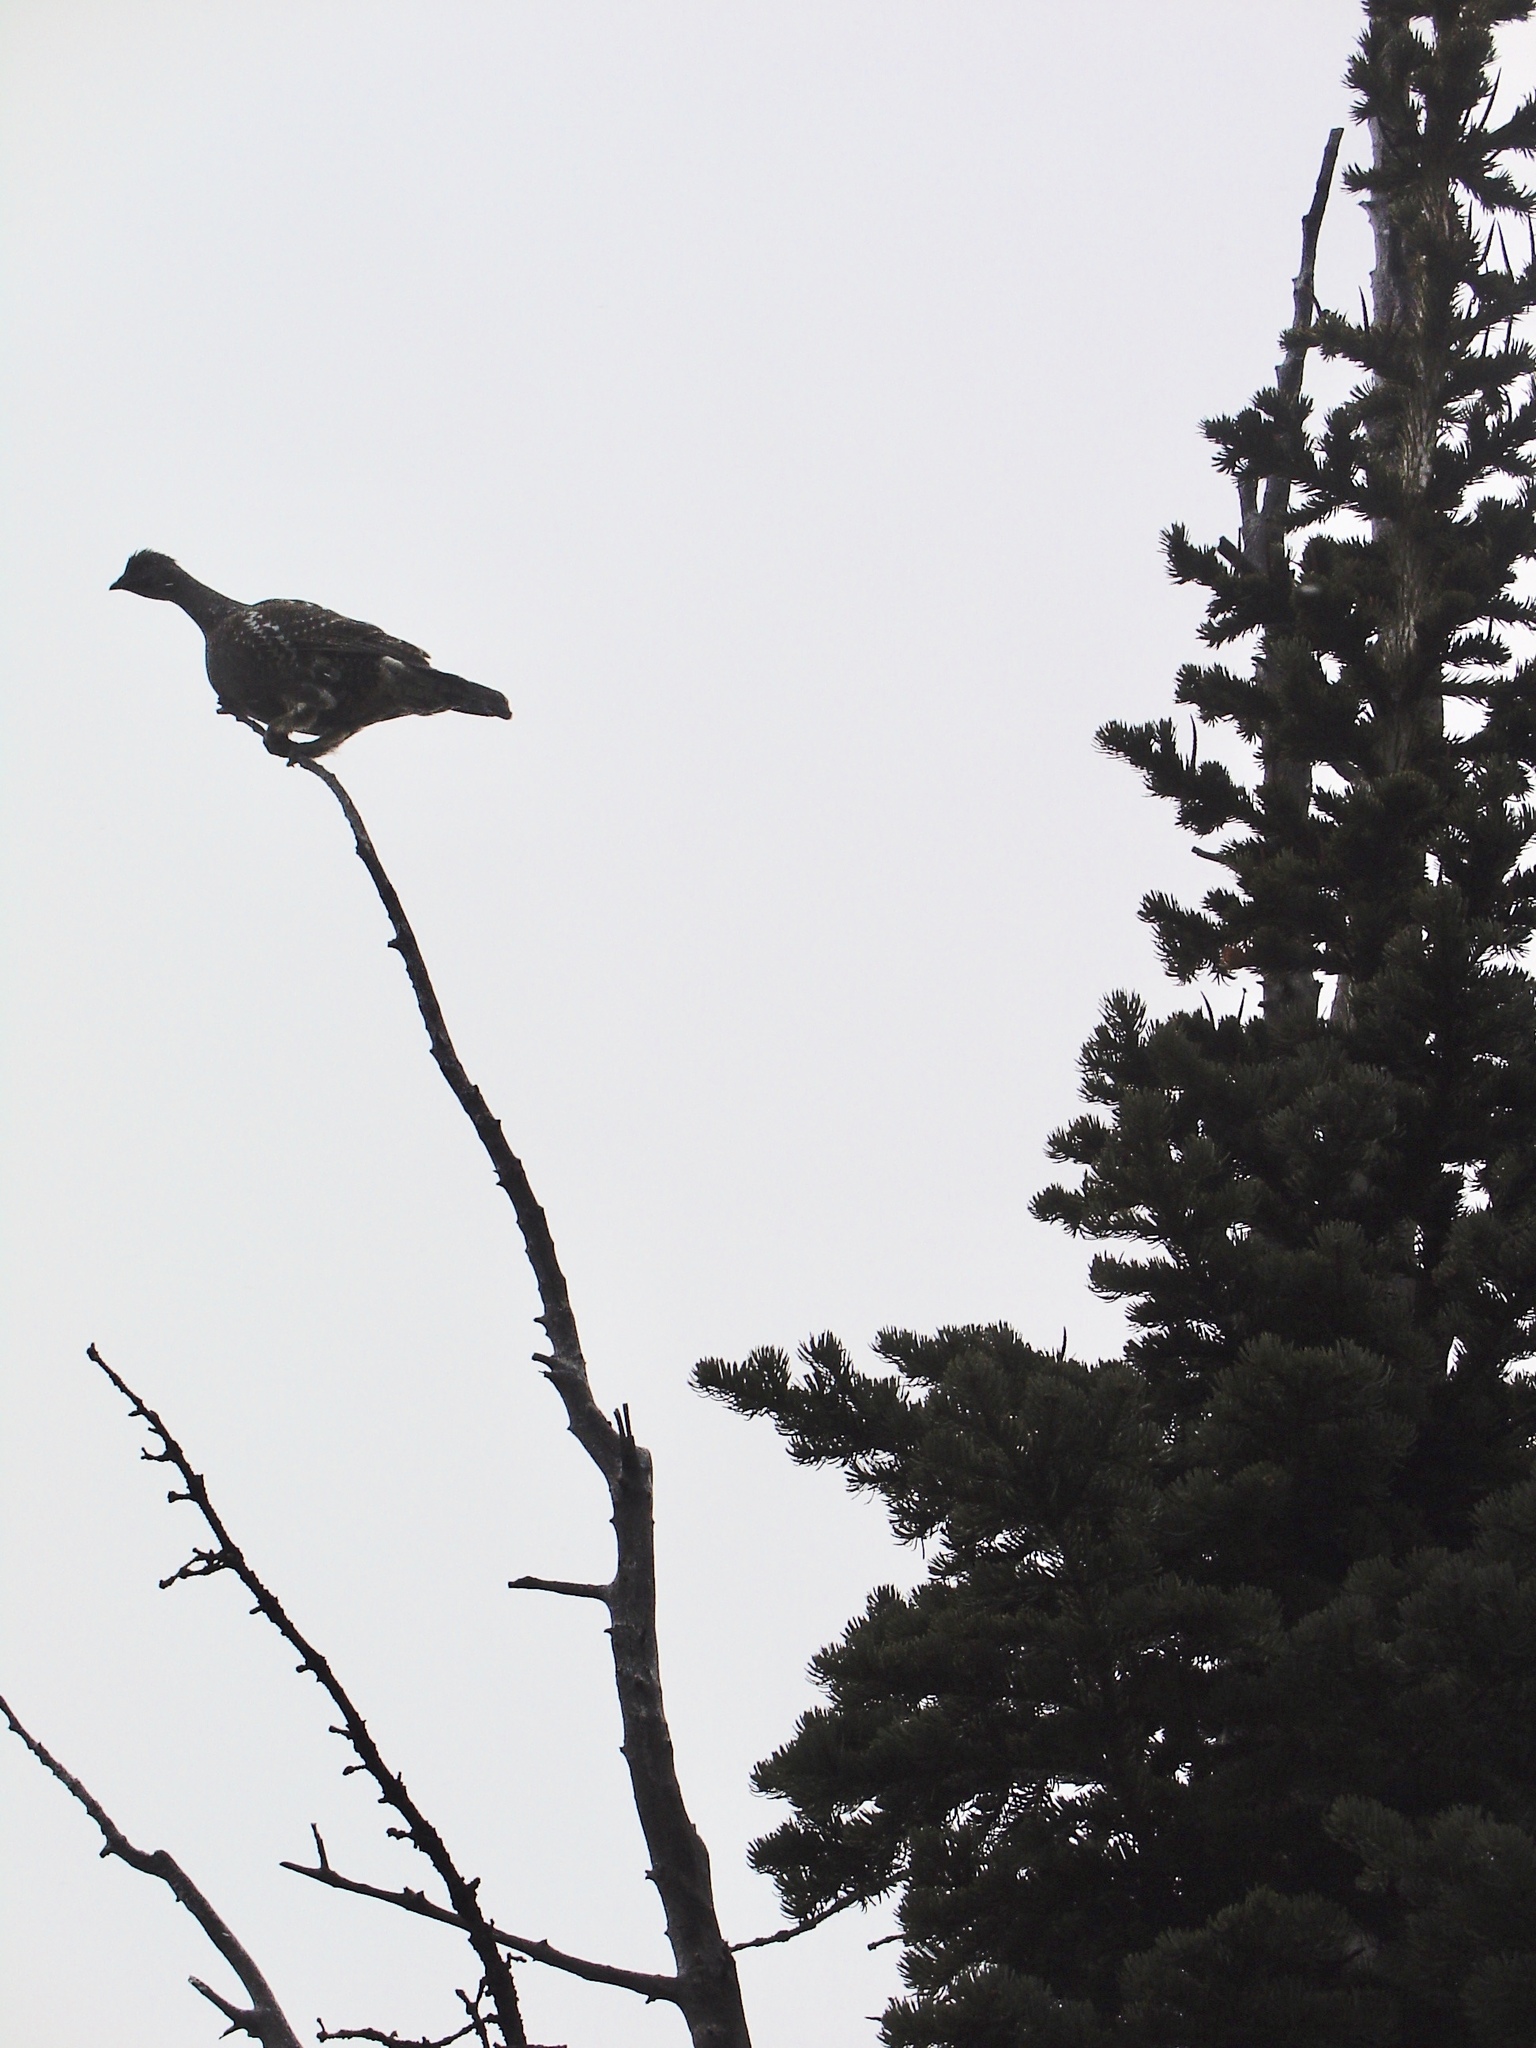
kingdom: Animalia
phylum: Chordata
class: Aves
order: Galliformes
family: Phasianidae
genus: Dendragapus
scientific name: Dendragapus obscurus
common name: Dusky grouse
